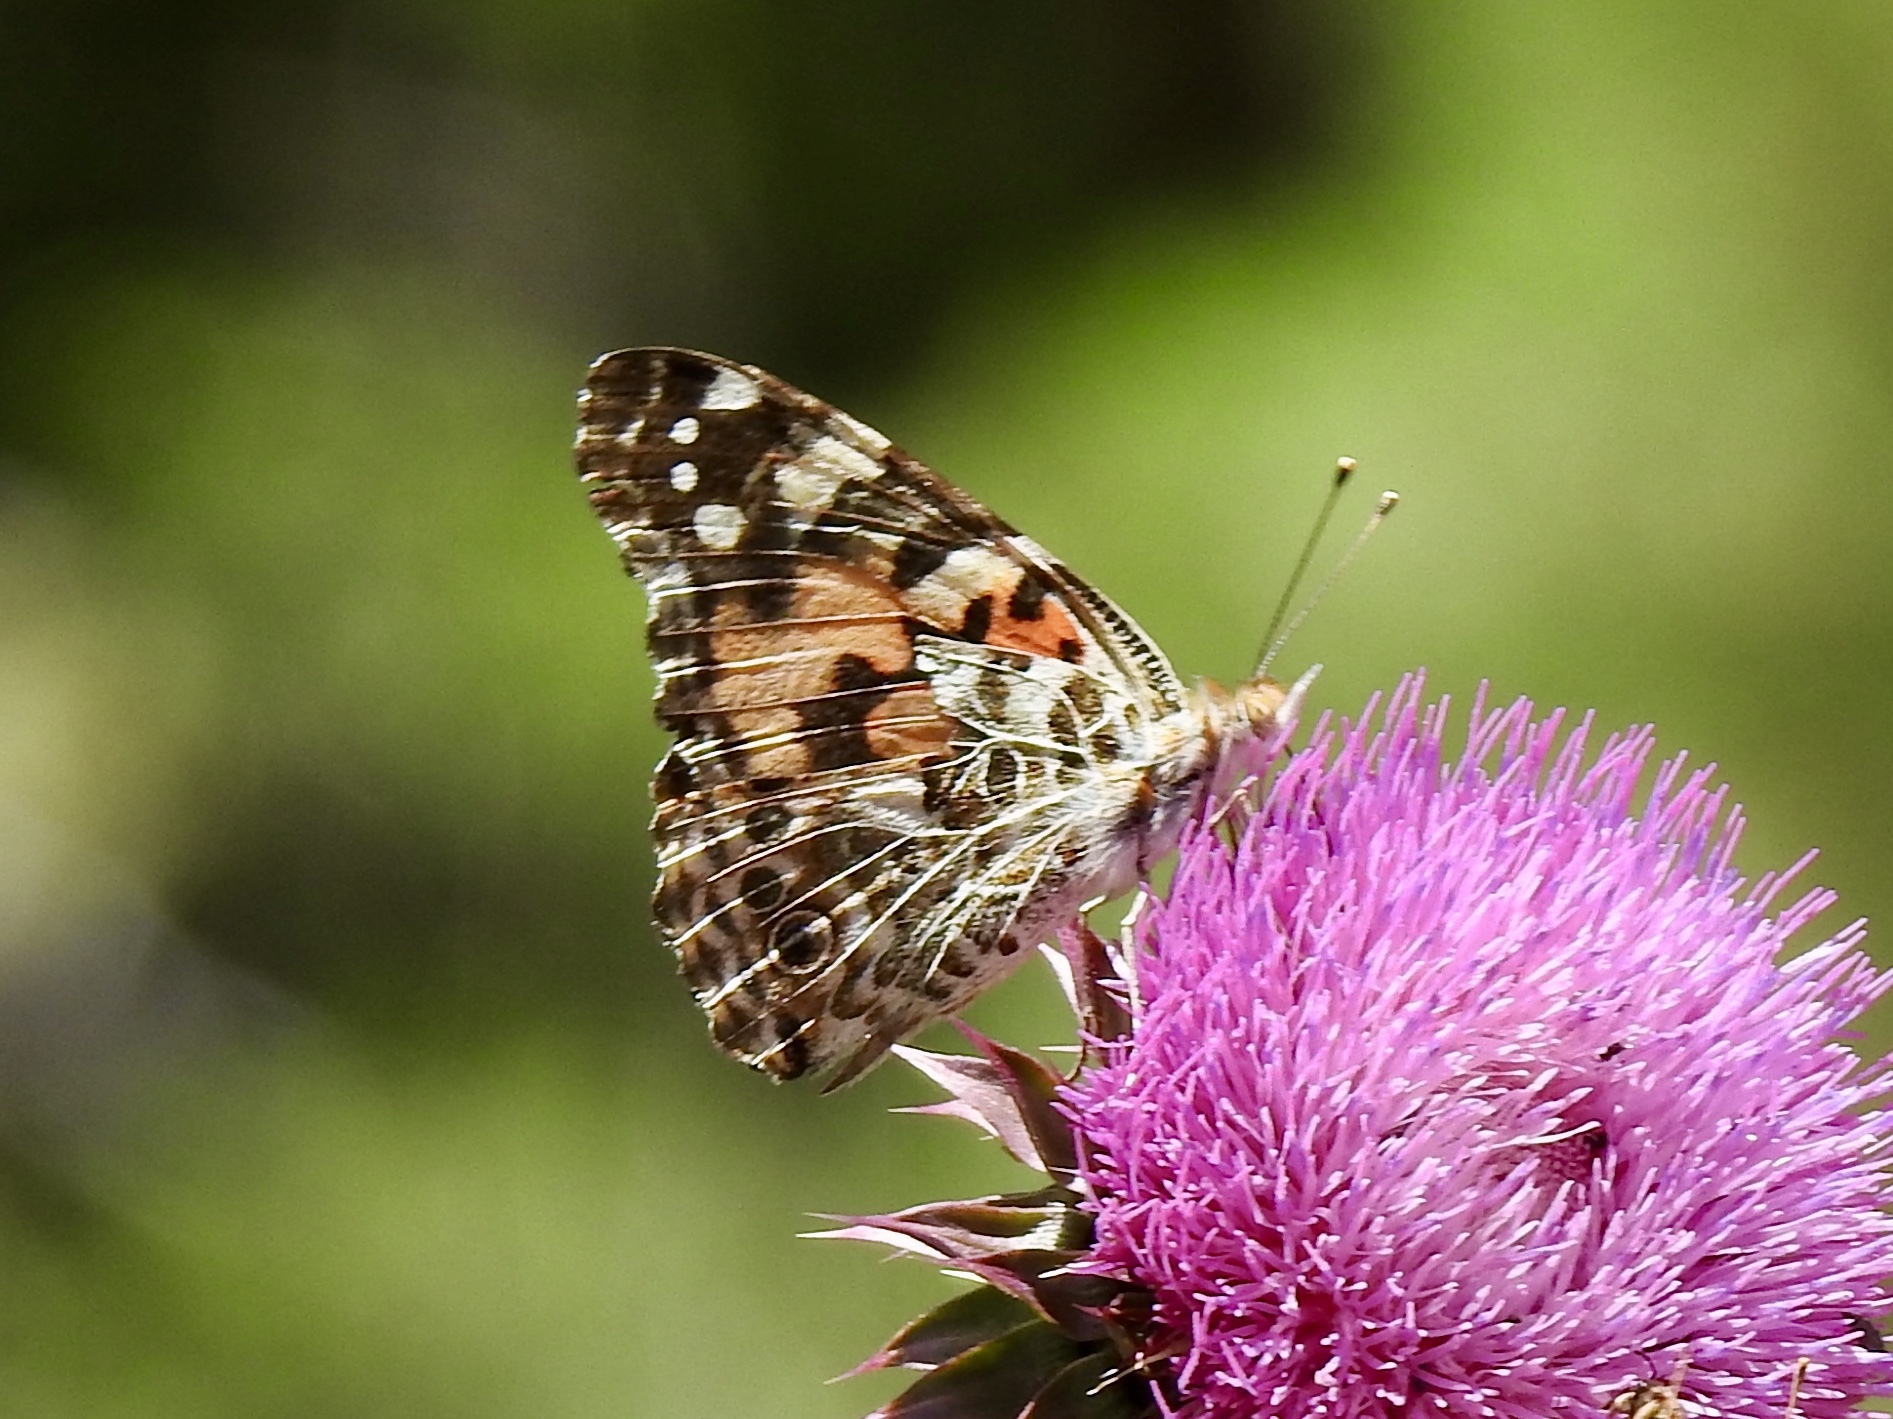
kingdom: Animalia
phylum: Arthropoda
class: Insecta
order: Lepidoptera
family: Nymphalidae
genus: Vanessa
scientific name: Vanessa cardui
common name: Painted lady
